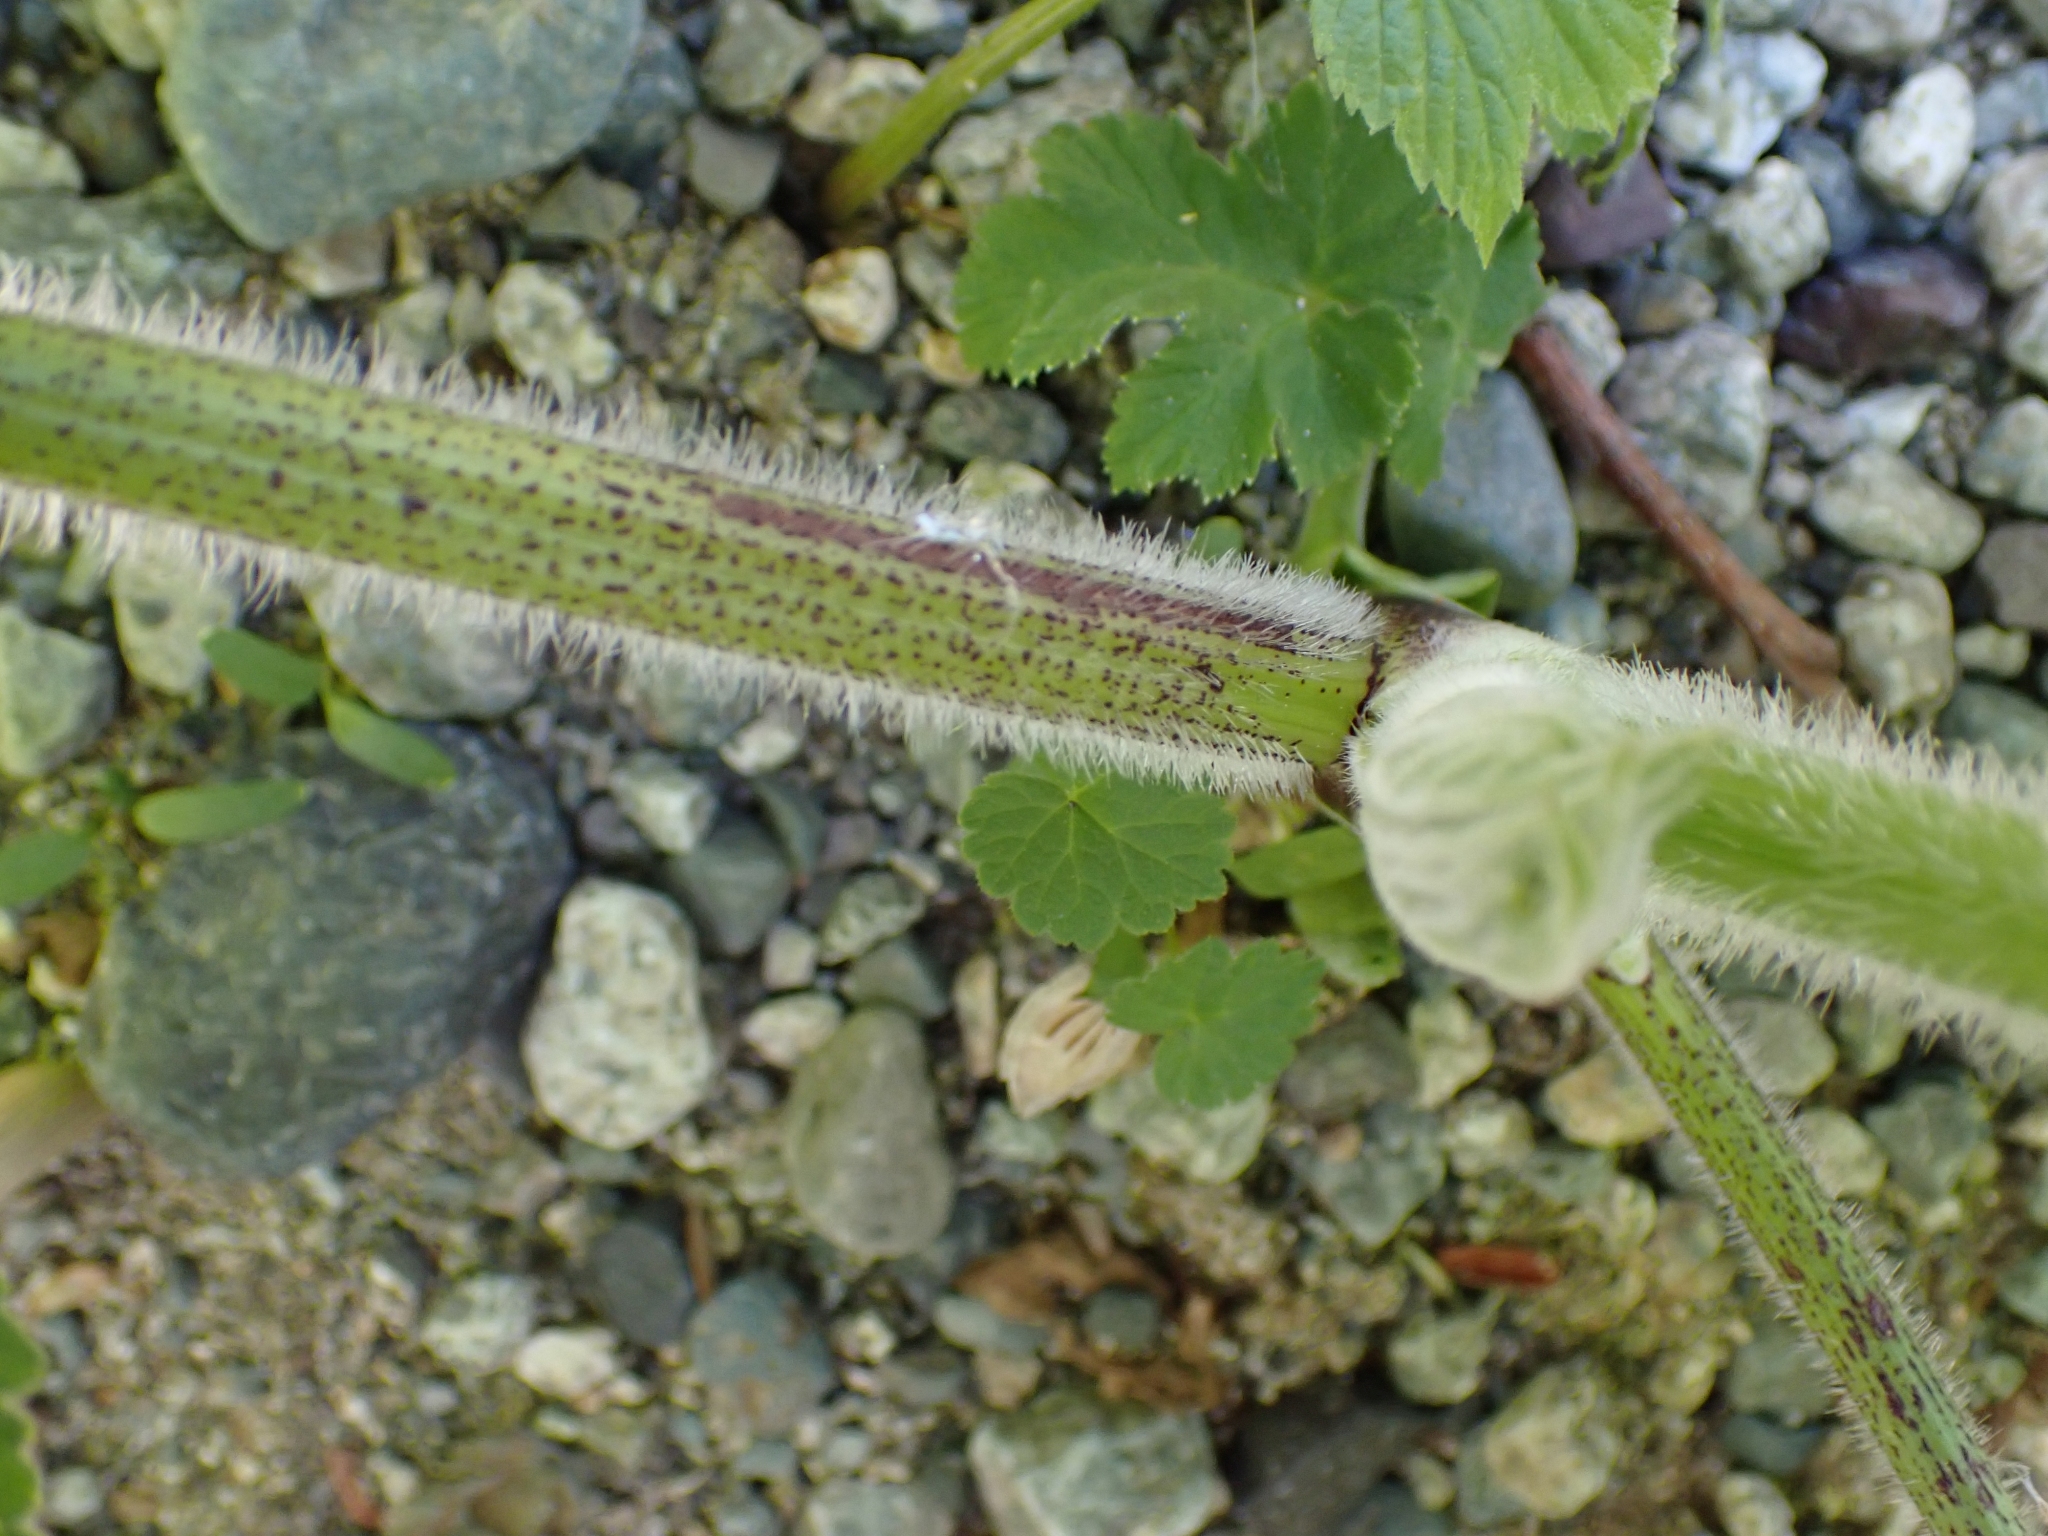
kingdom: Plantae
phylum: Tracheophyta
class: Magnoliopsida
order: Apiales
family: Apiaceae
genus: Heracleum
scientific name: Heracleum maximum
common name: American cow parsnip
